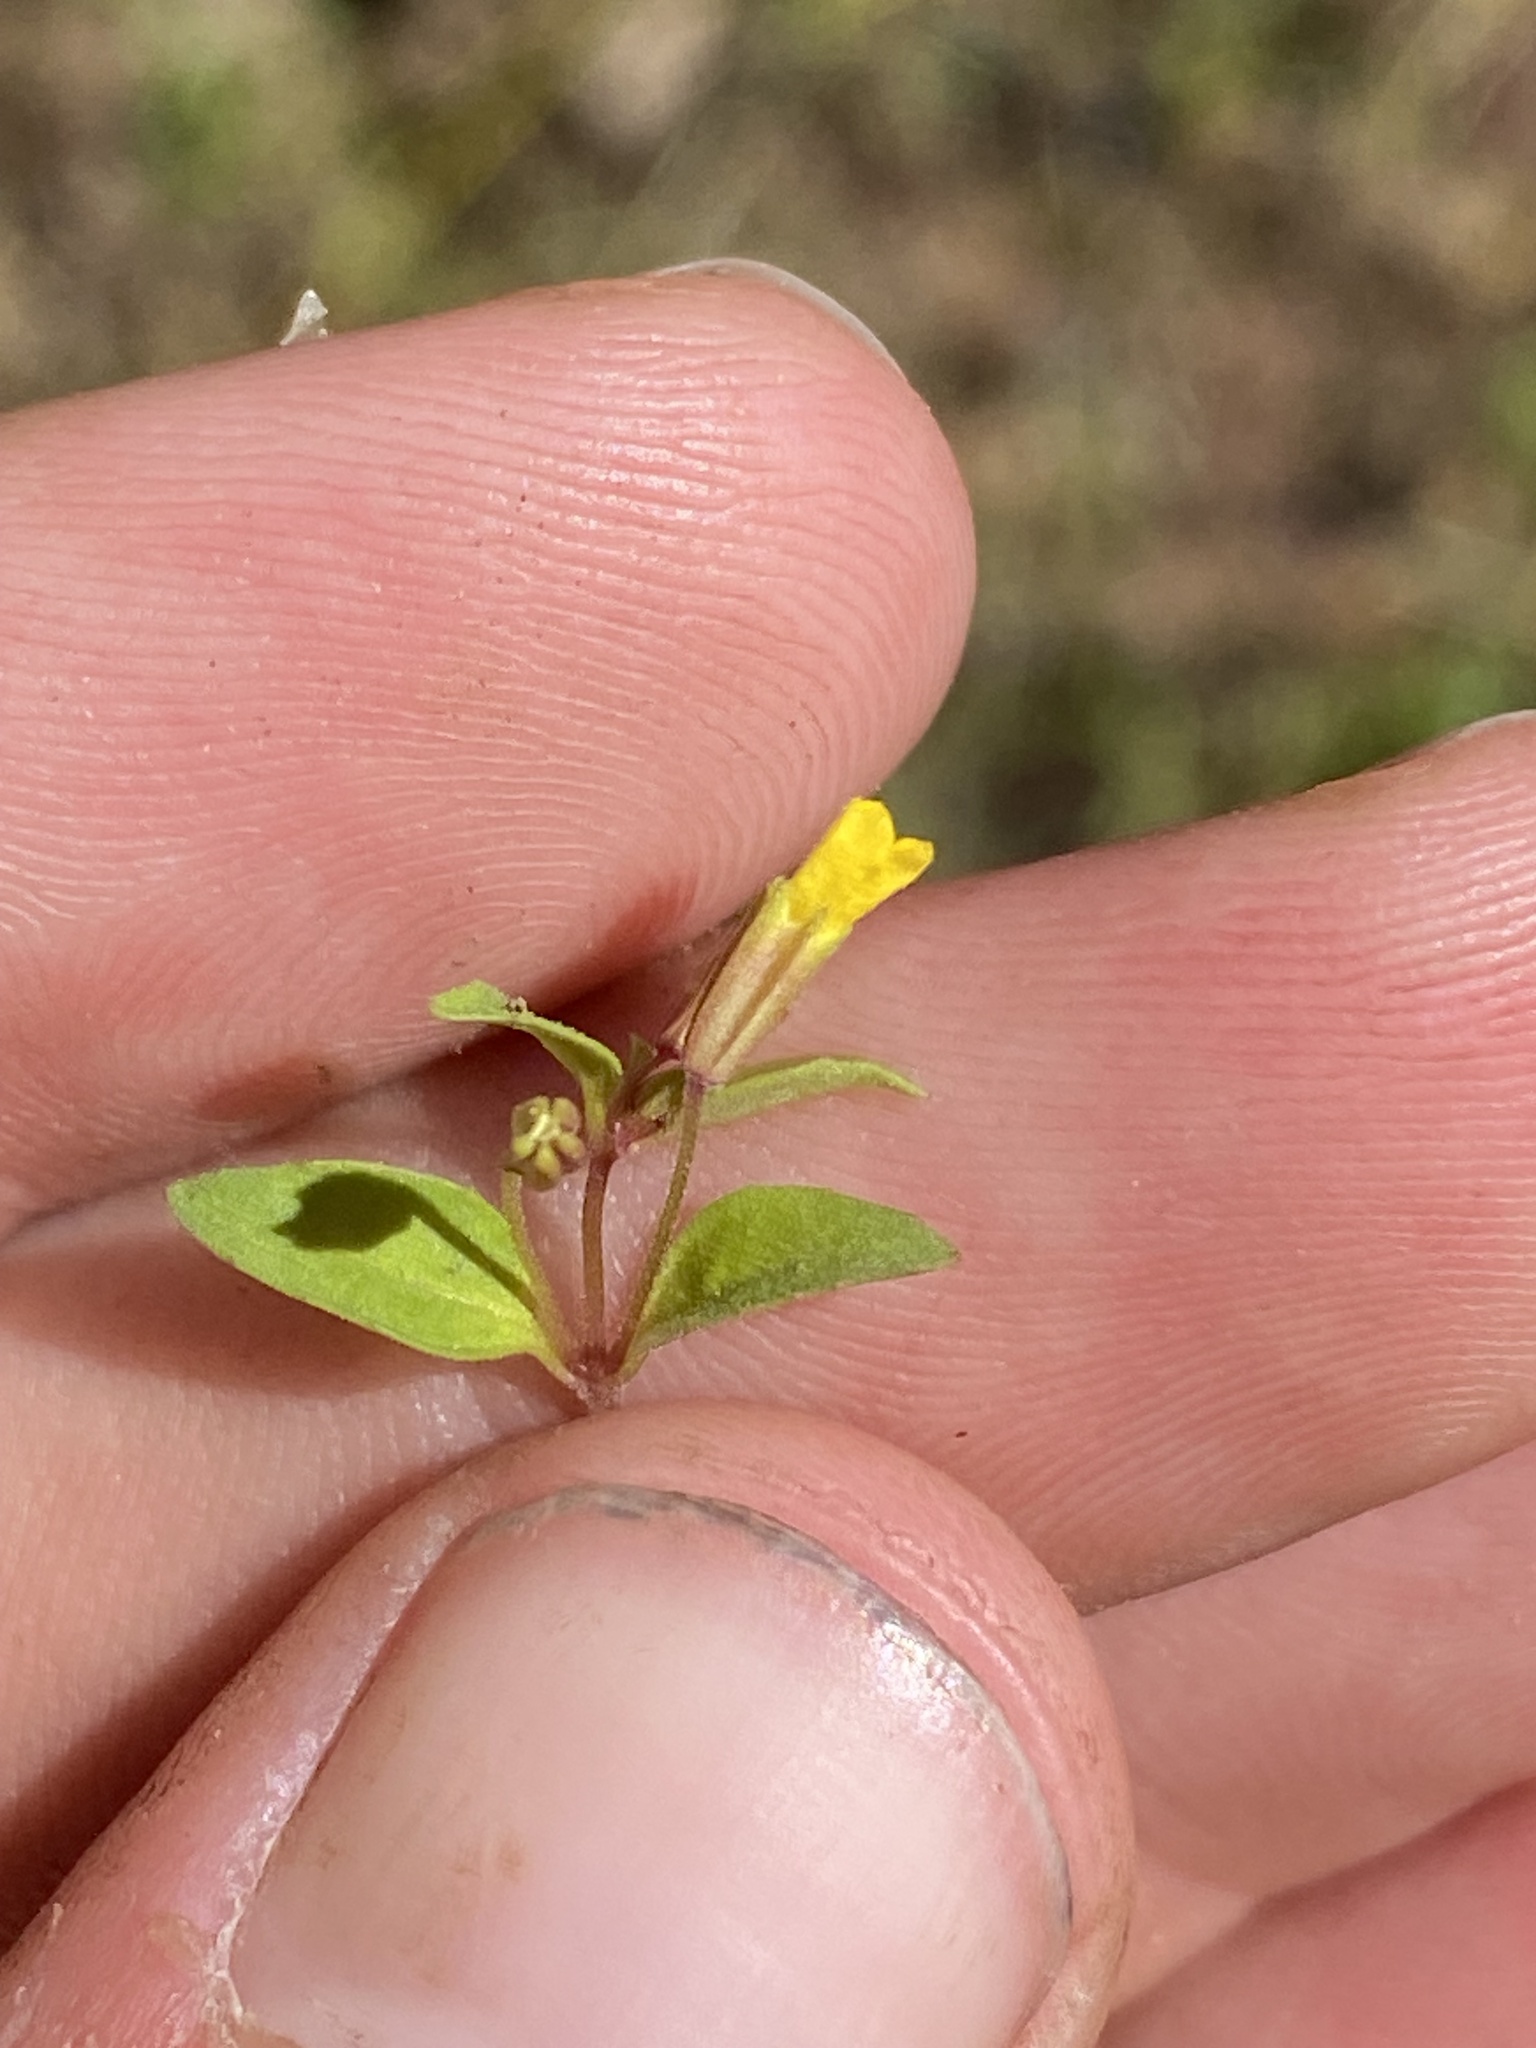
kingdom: Plantae
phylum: Tracheophyta
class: Magnoliopsida
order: Lamiales
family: Phrymaceae
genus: Erythranthe
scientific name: Erythranthe breviflora
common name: Short-flowered monkeyflower
